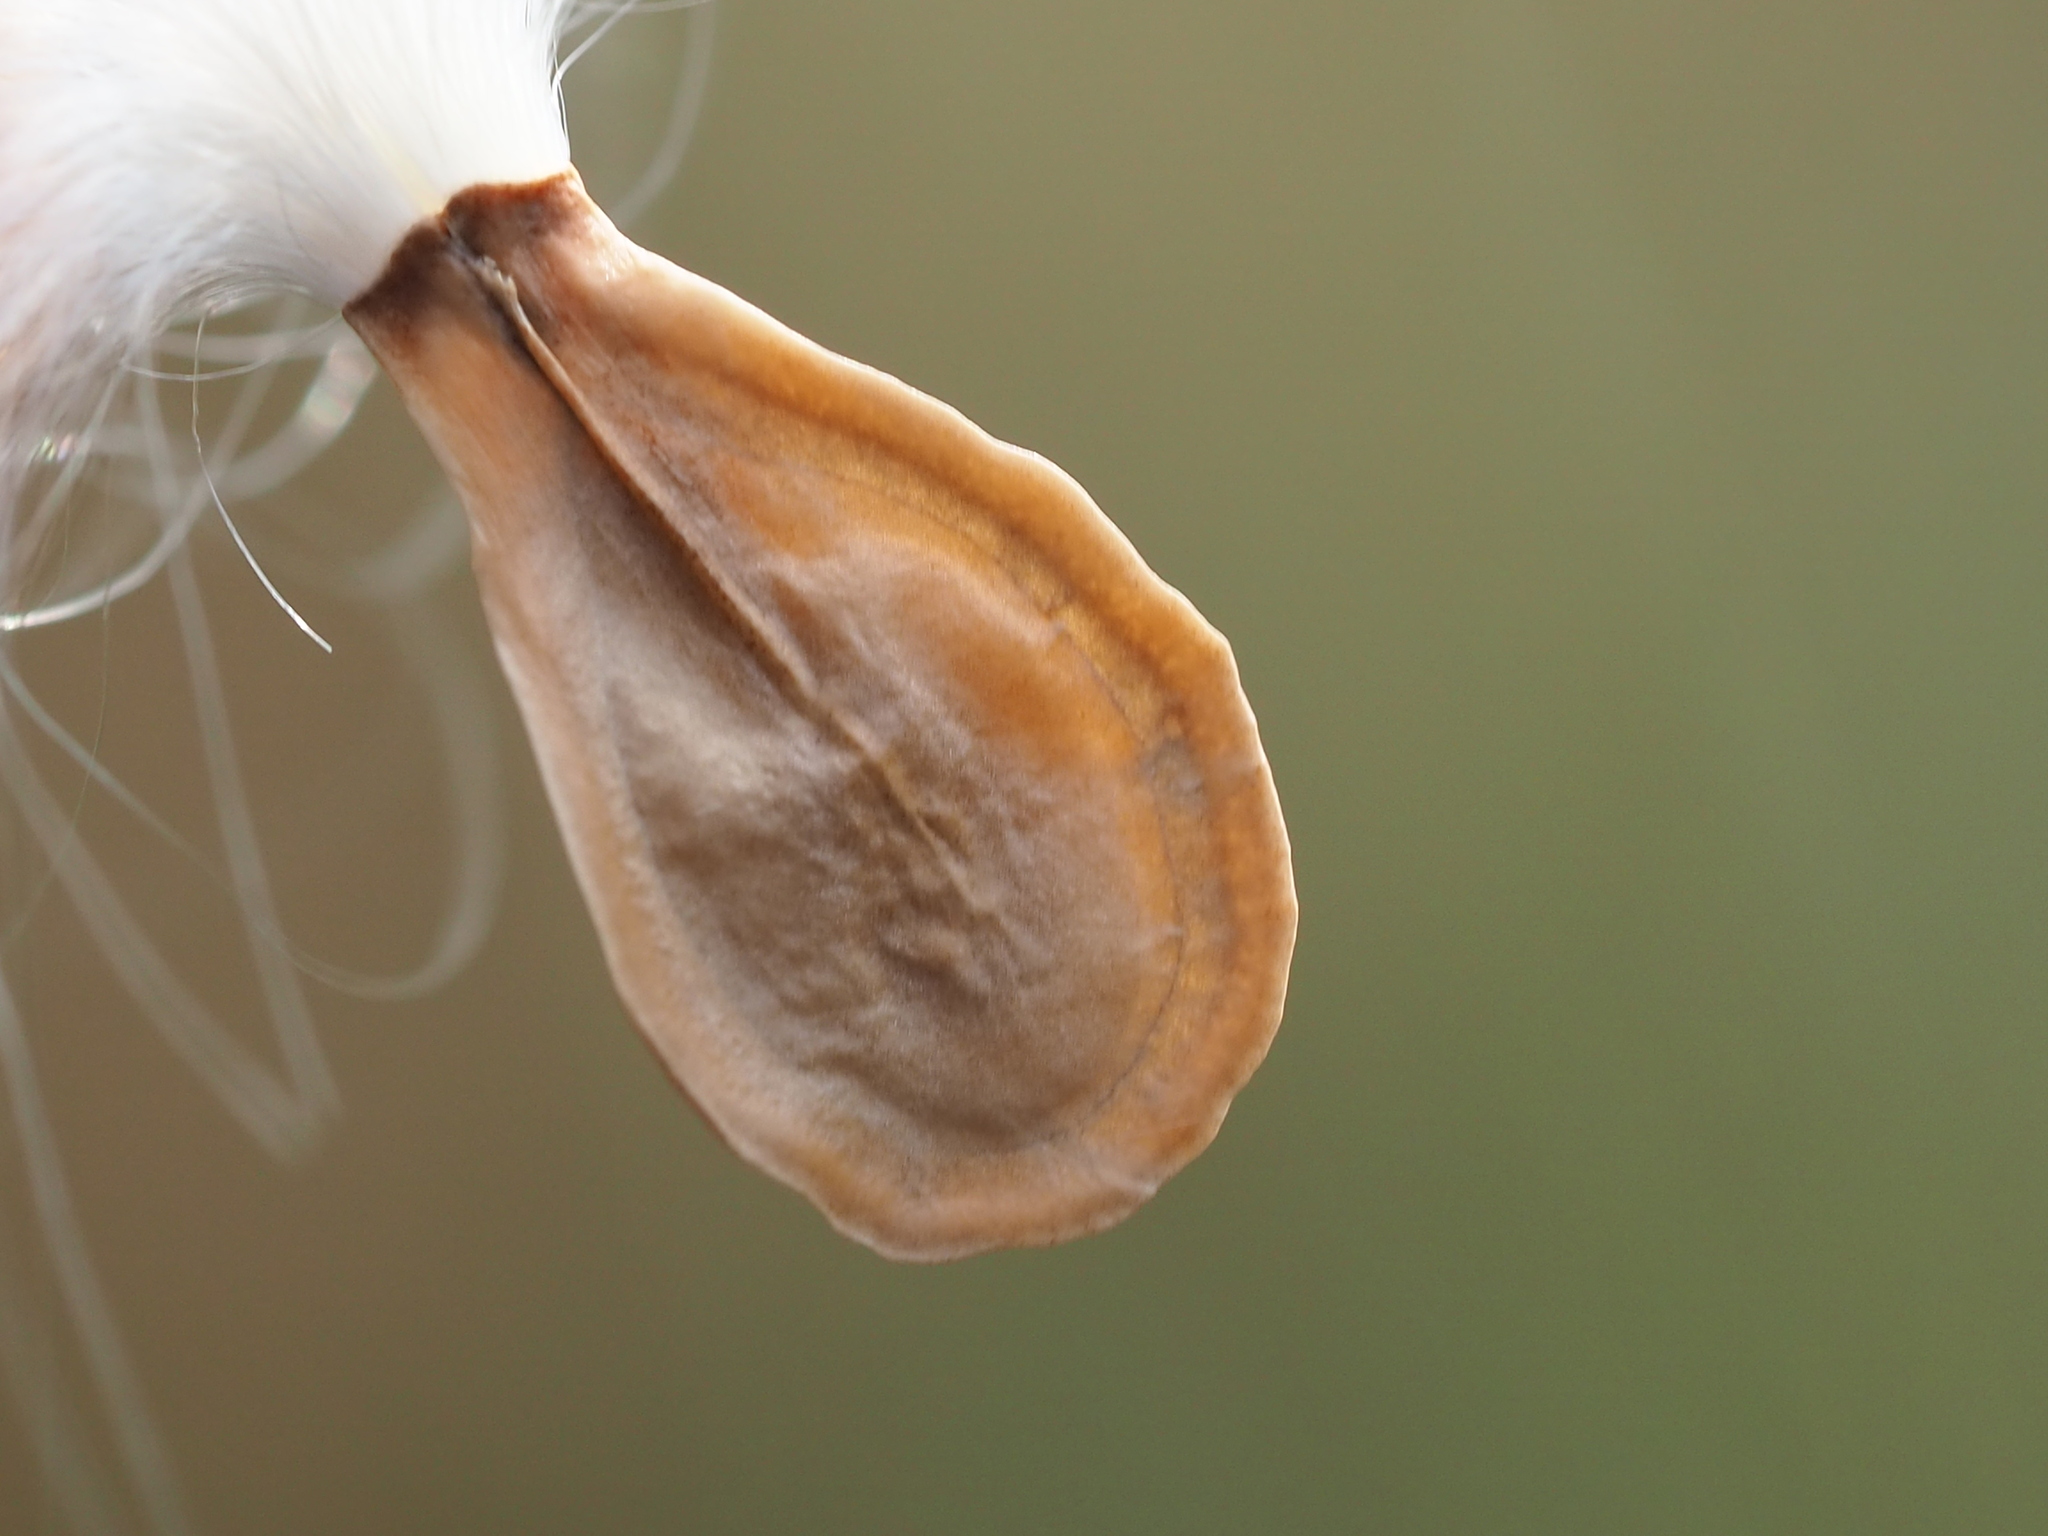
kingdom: Plantae
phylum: Tracheophyta
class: Magnoliopsida
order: Gentianales
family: Apocynaceae
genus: Stephanotis
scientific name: Stephanotis volubilis
